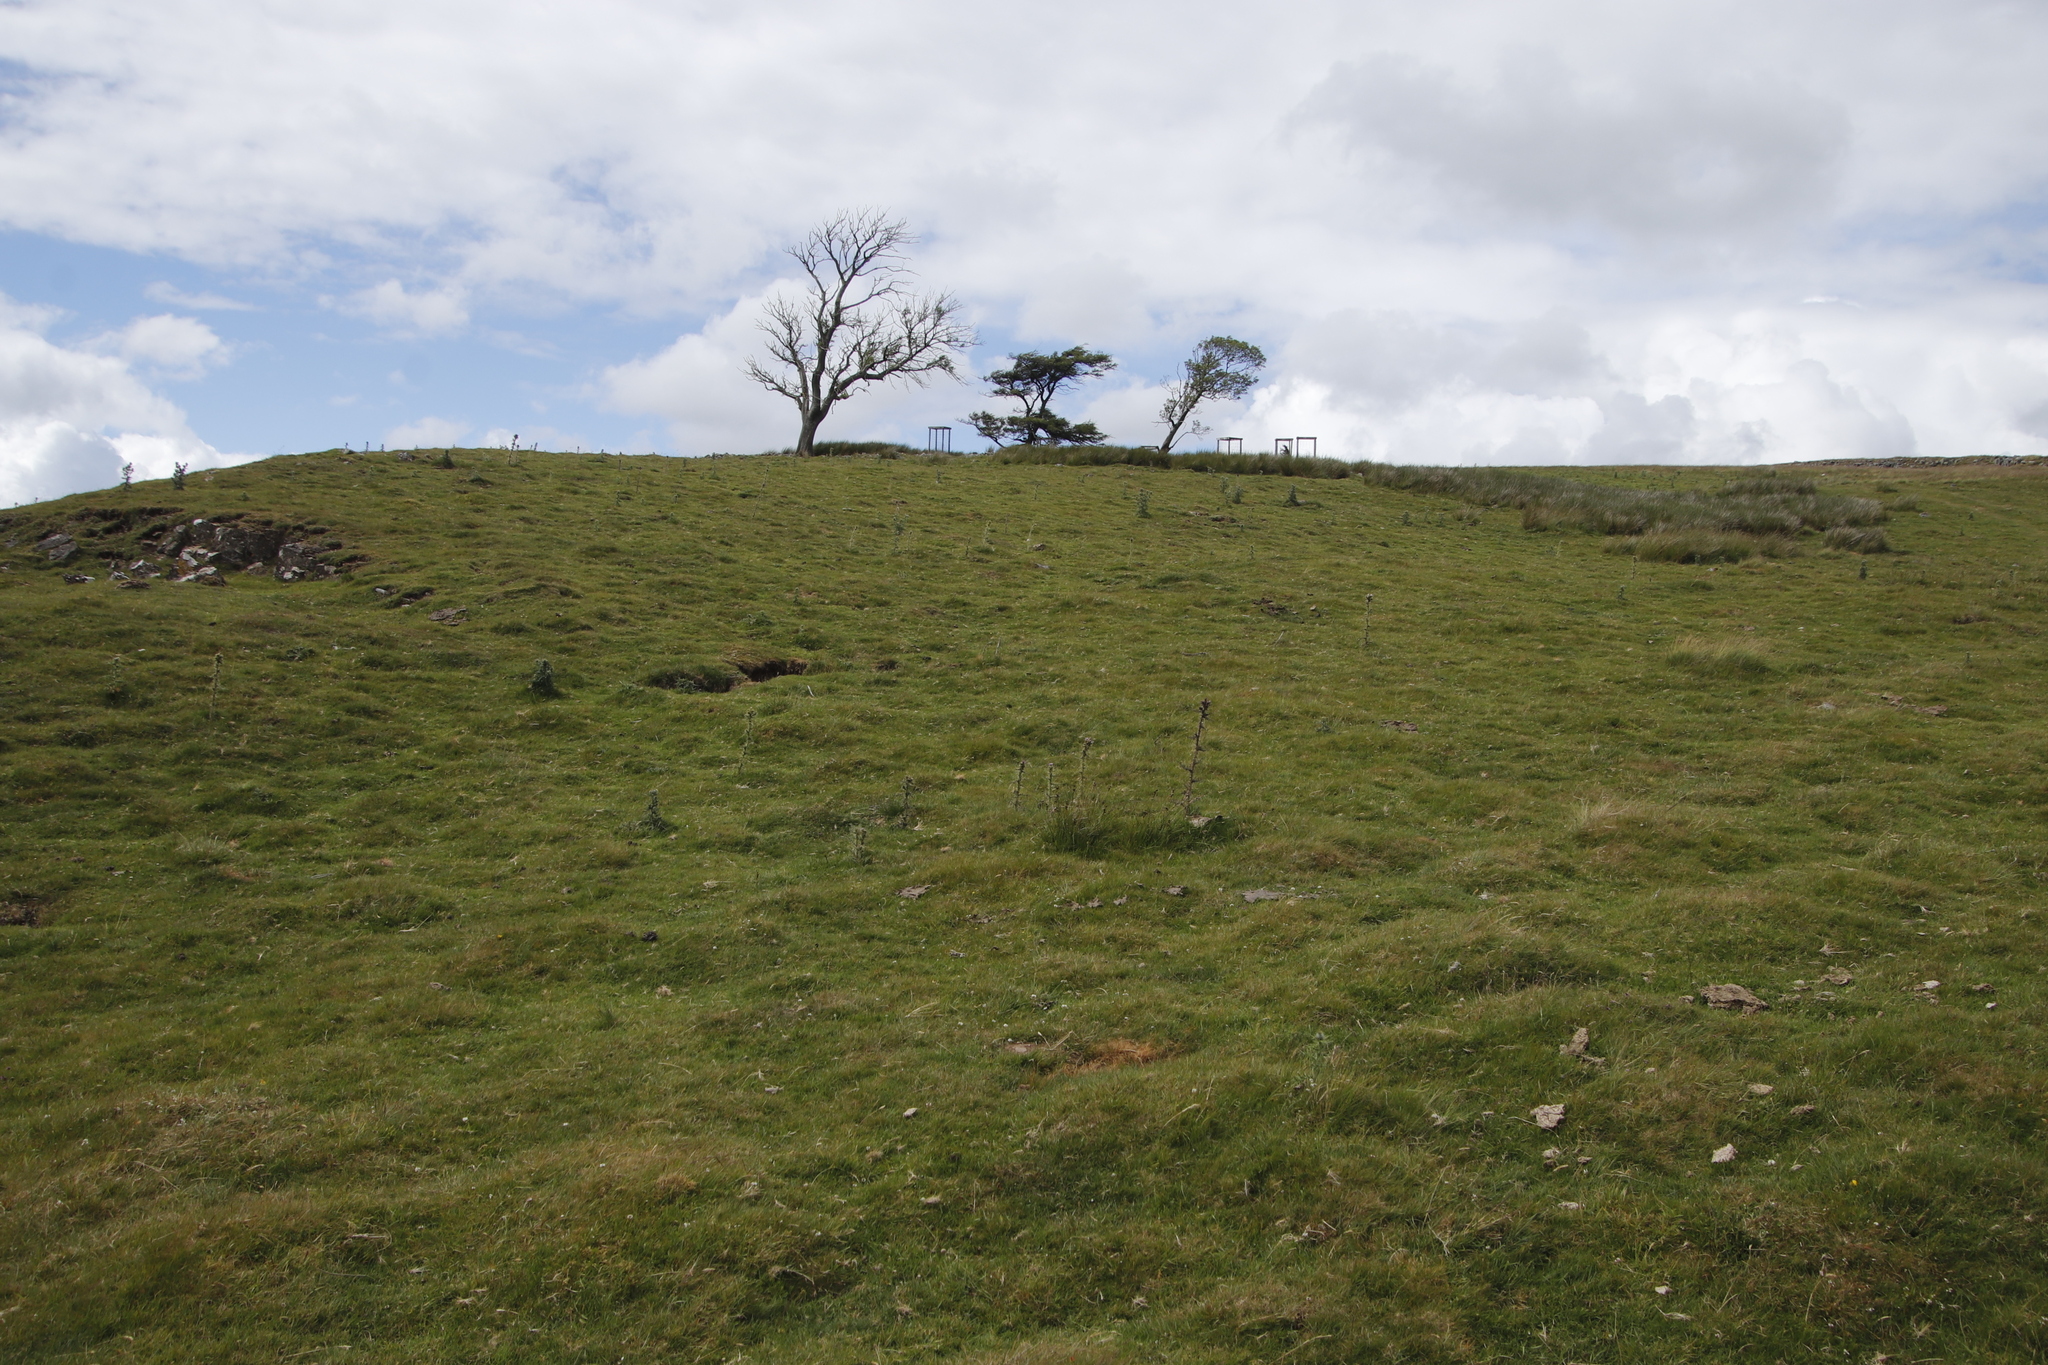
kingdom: Plantae
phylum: Tracheophyta
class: Magnoliopsida
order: Asterales
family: Asteraceae
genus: Cirsium
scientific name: Cirsium palustre
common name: Marsh thistle
